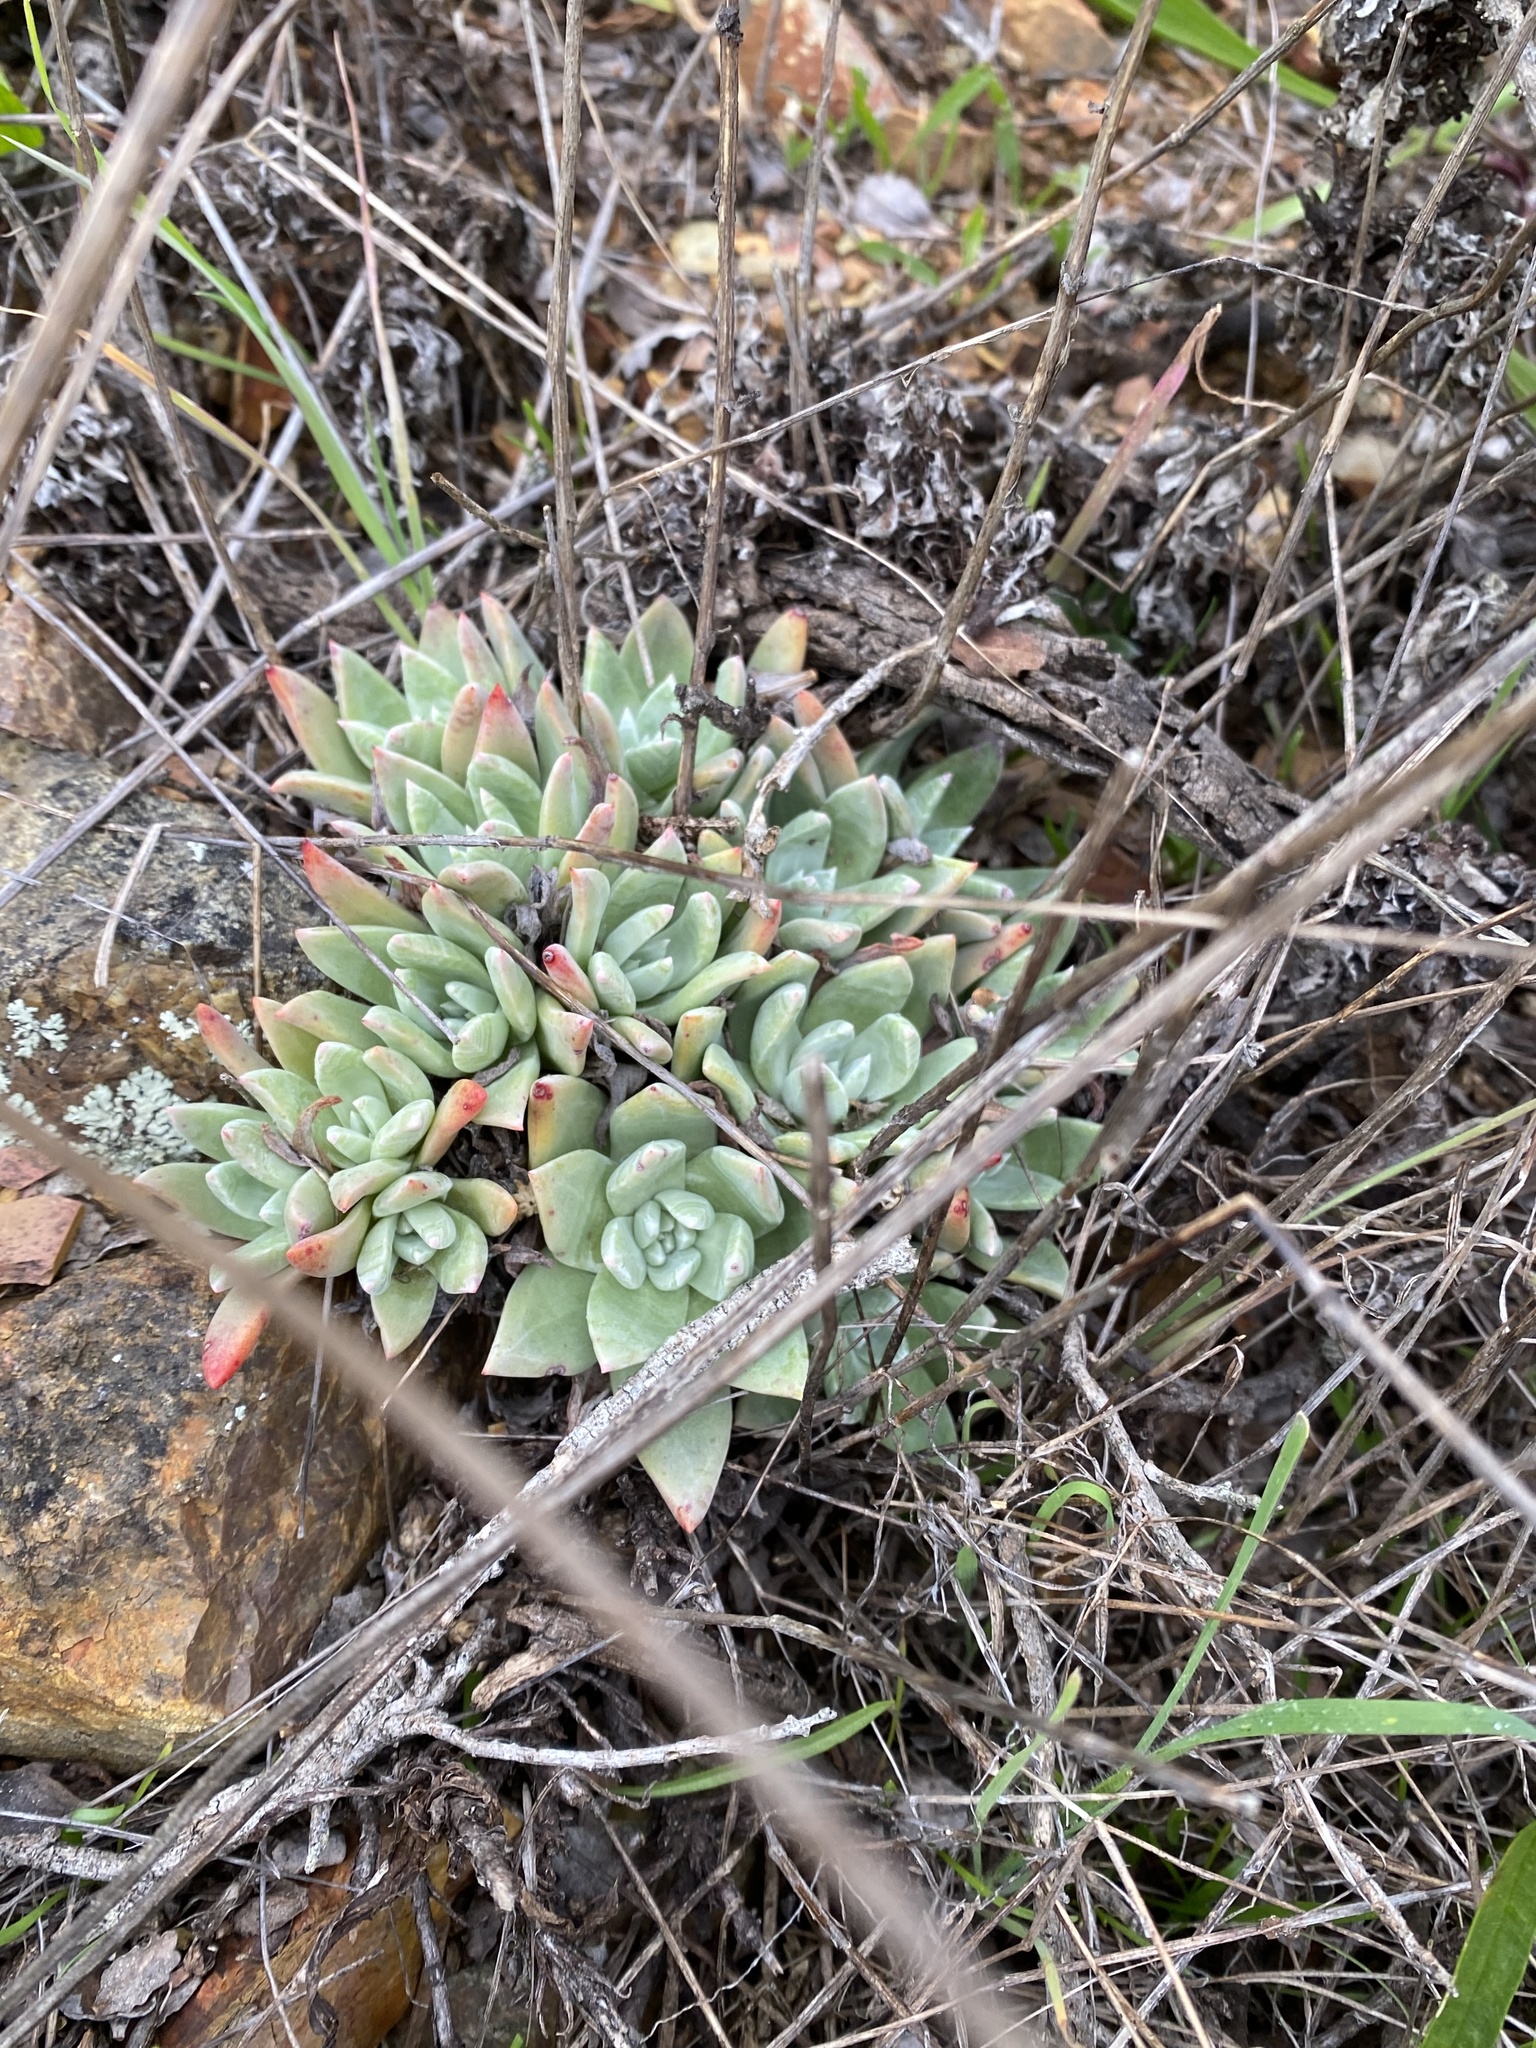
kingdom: Plantae
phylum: Tracheophyta
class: Magnoliopsida
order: Saxifragales
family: Crassulaceae
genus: Dudleya
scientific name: Dudleya farinosa
